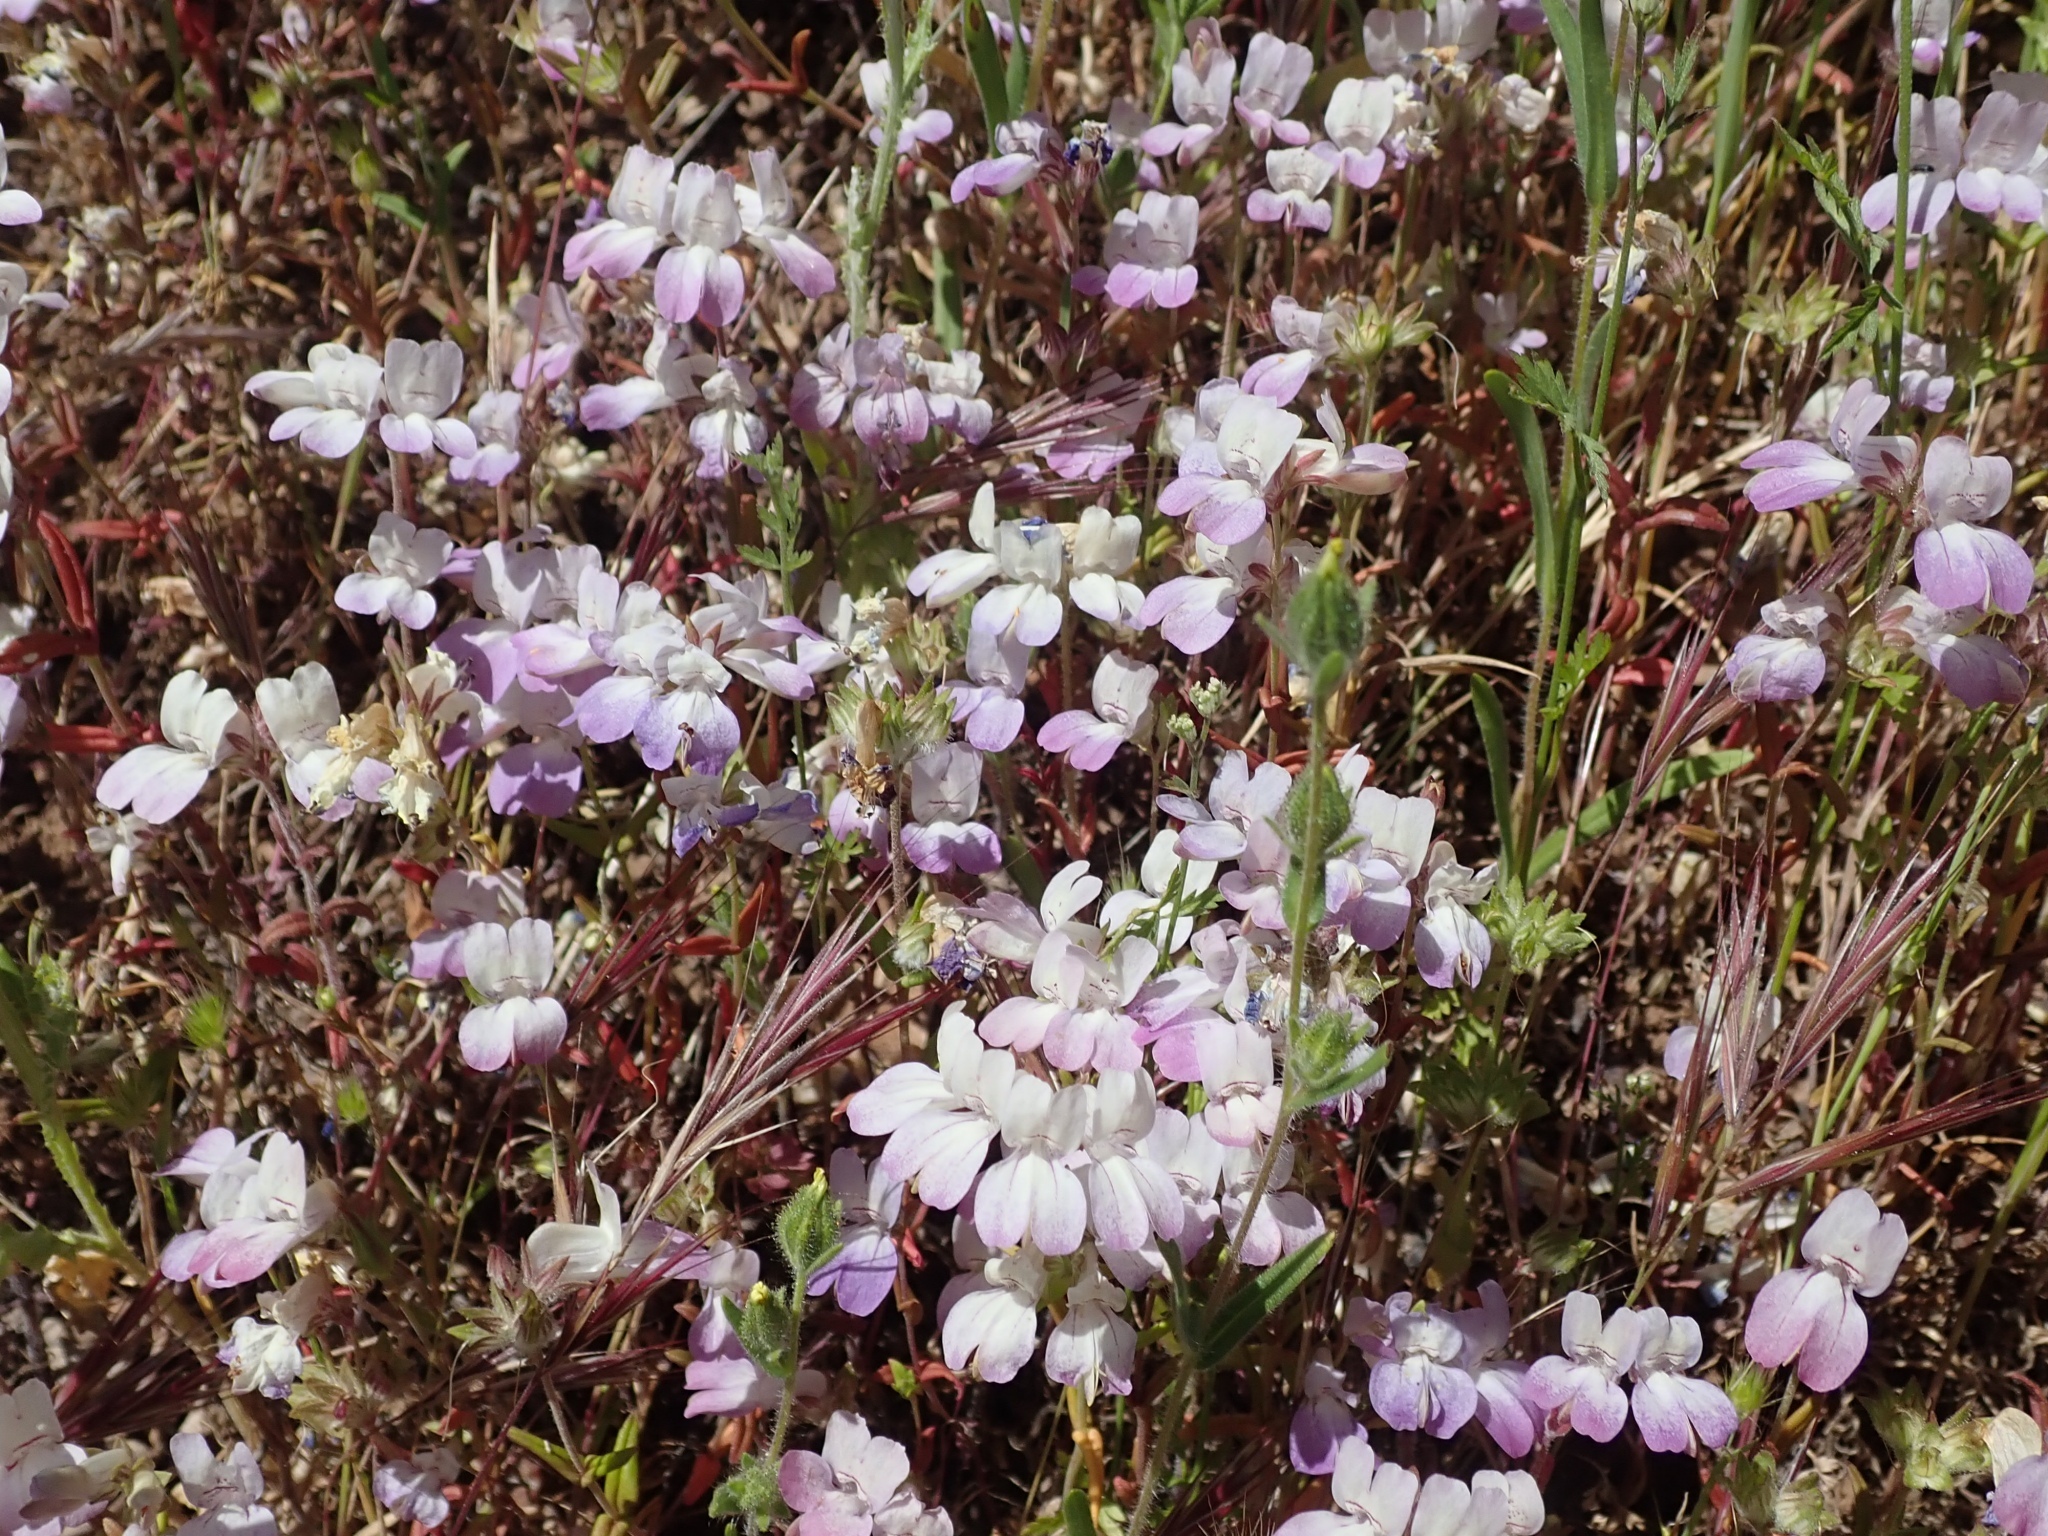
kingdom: Plantae
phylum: Tracheophyta
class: Magnoliopsida
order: Lamiales
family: Plantaginaceae
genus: Collinsia
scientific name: Collinsia heterophylla
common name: Chinese-houses
